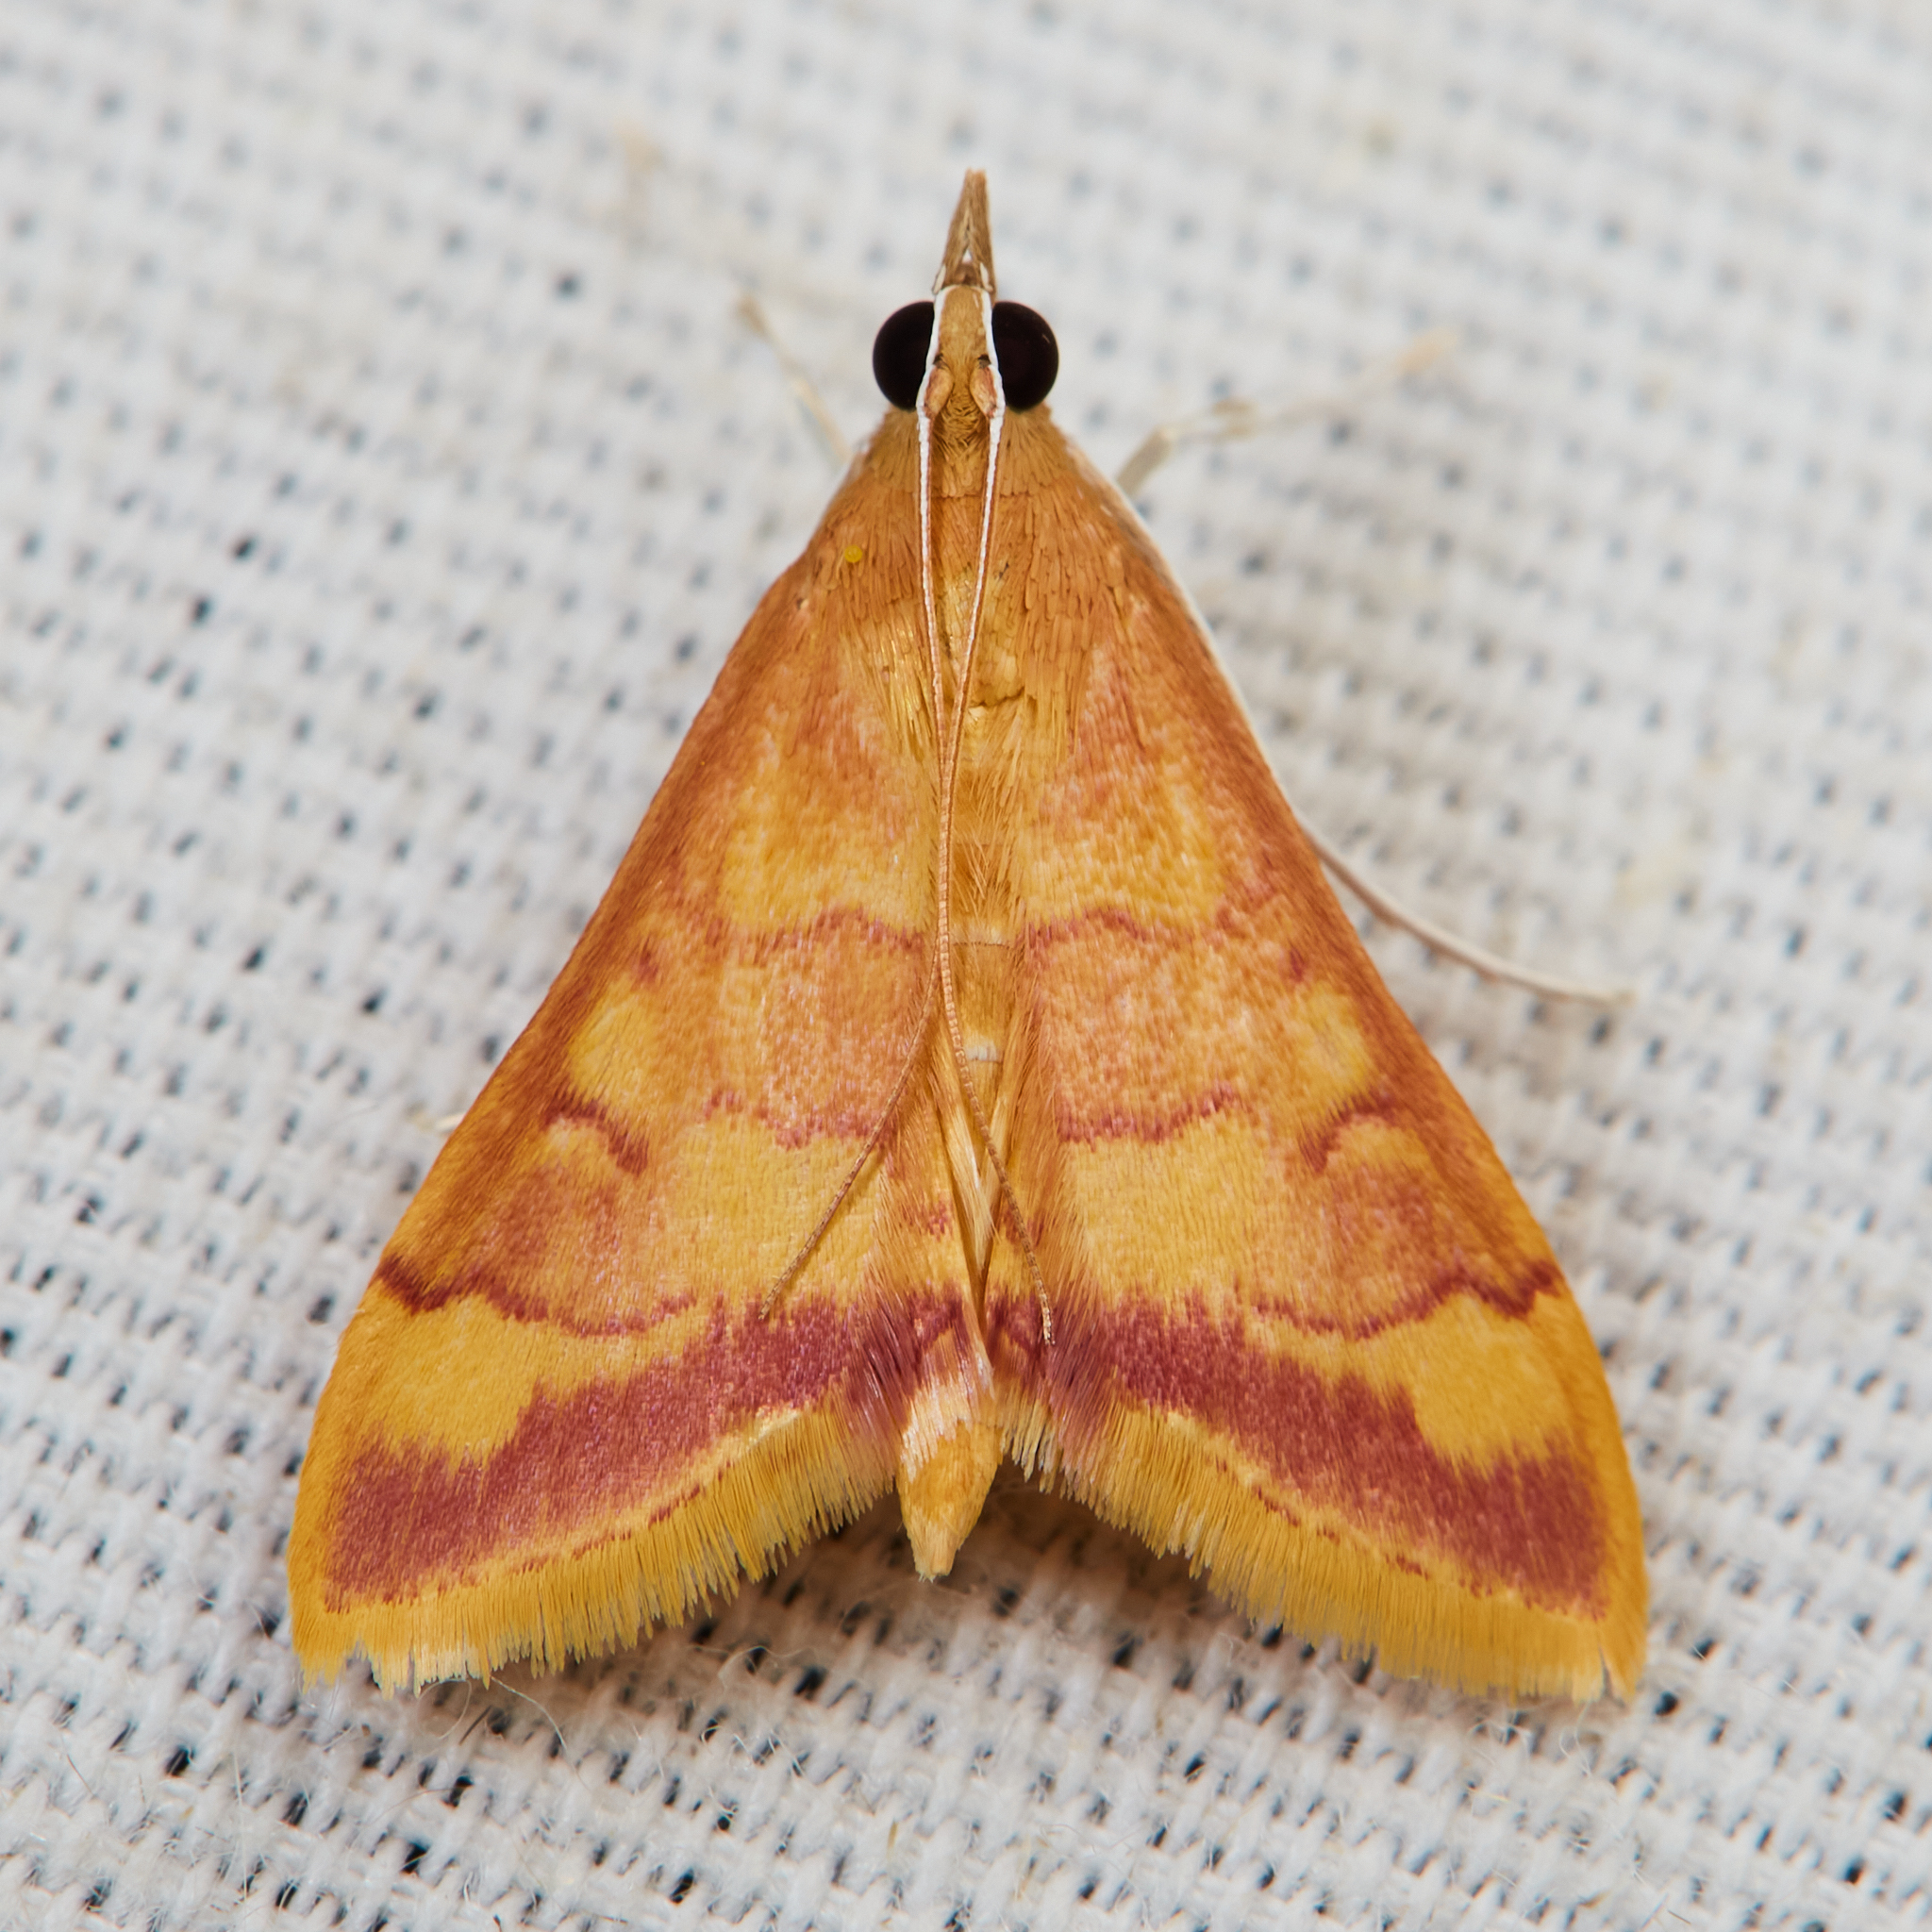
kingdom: Animalia
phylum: Arthropoda
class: Insecta
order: Lepidoptera
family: Crambidae
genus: Pyrausta
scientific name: Pyrausta pseudonythesalis
